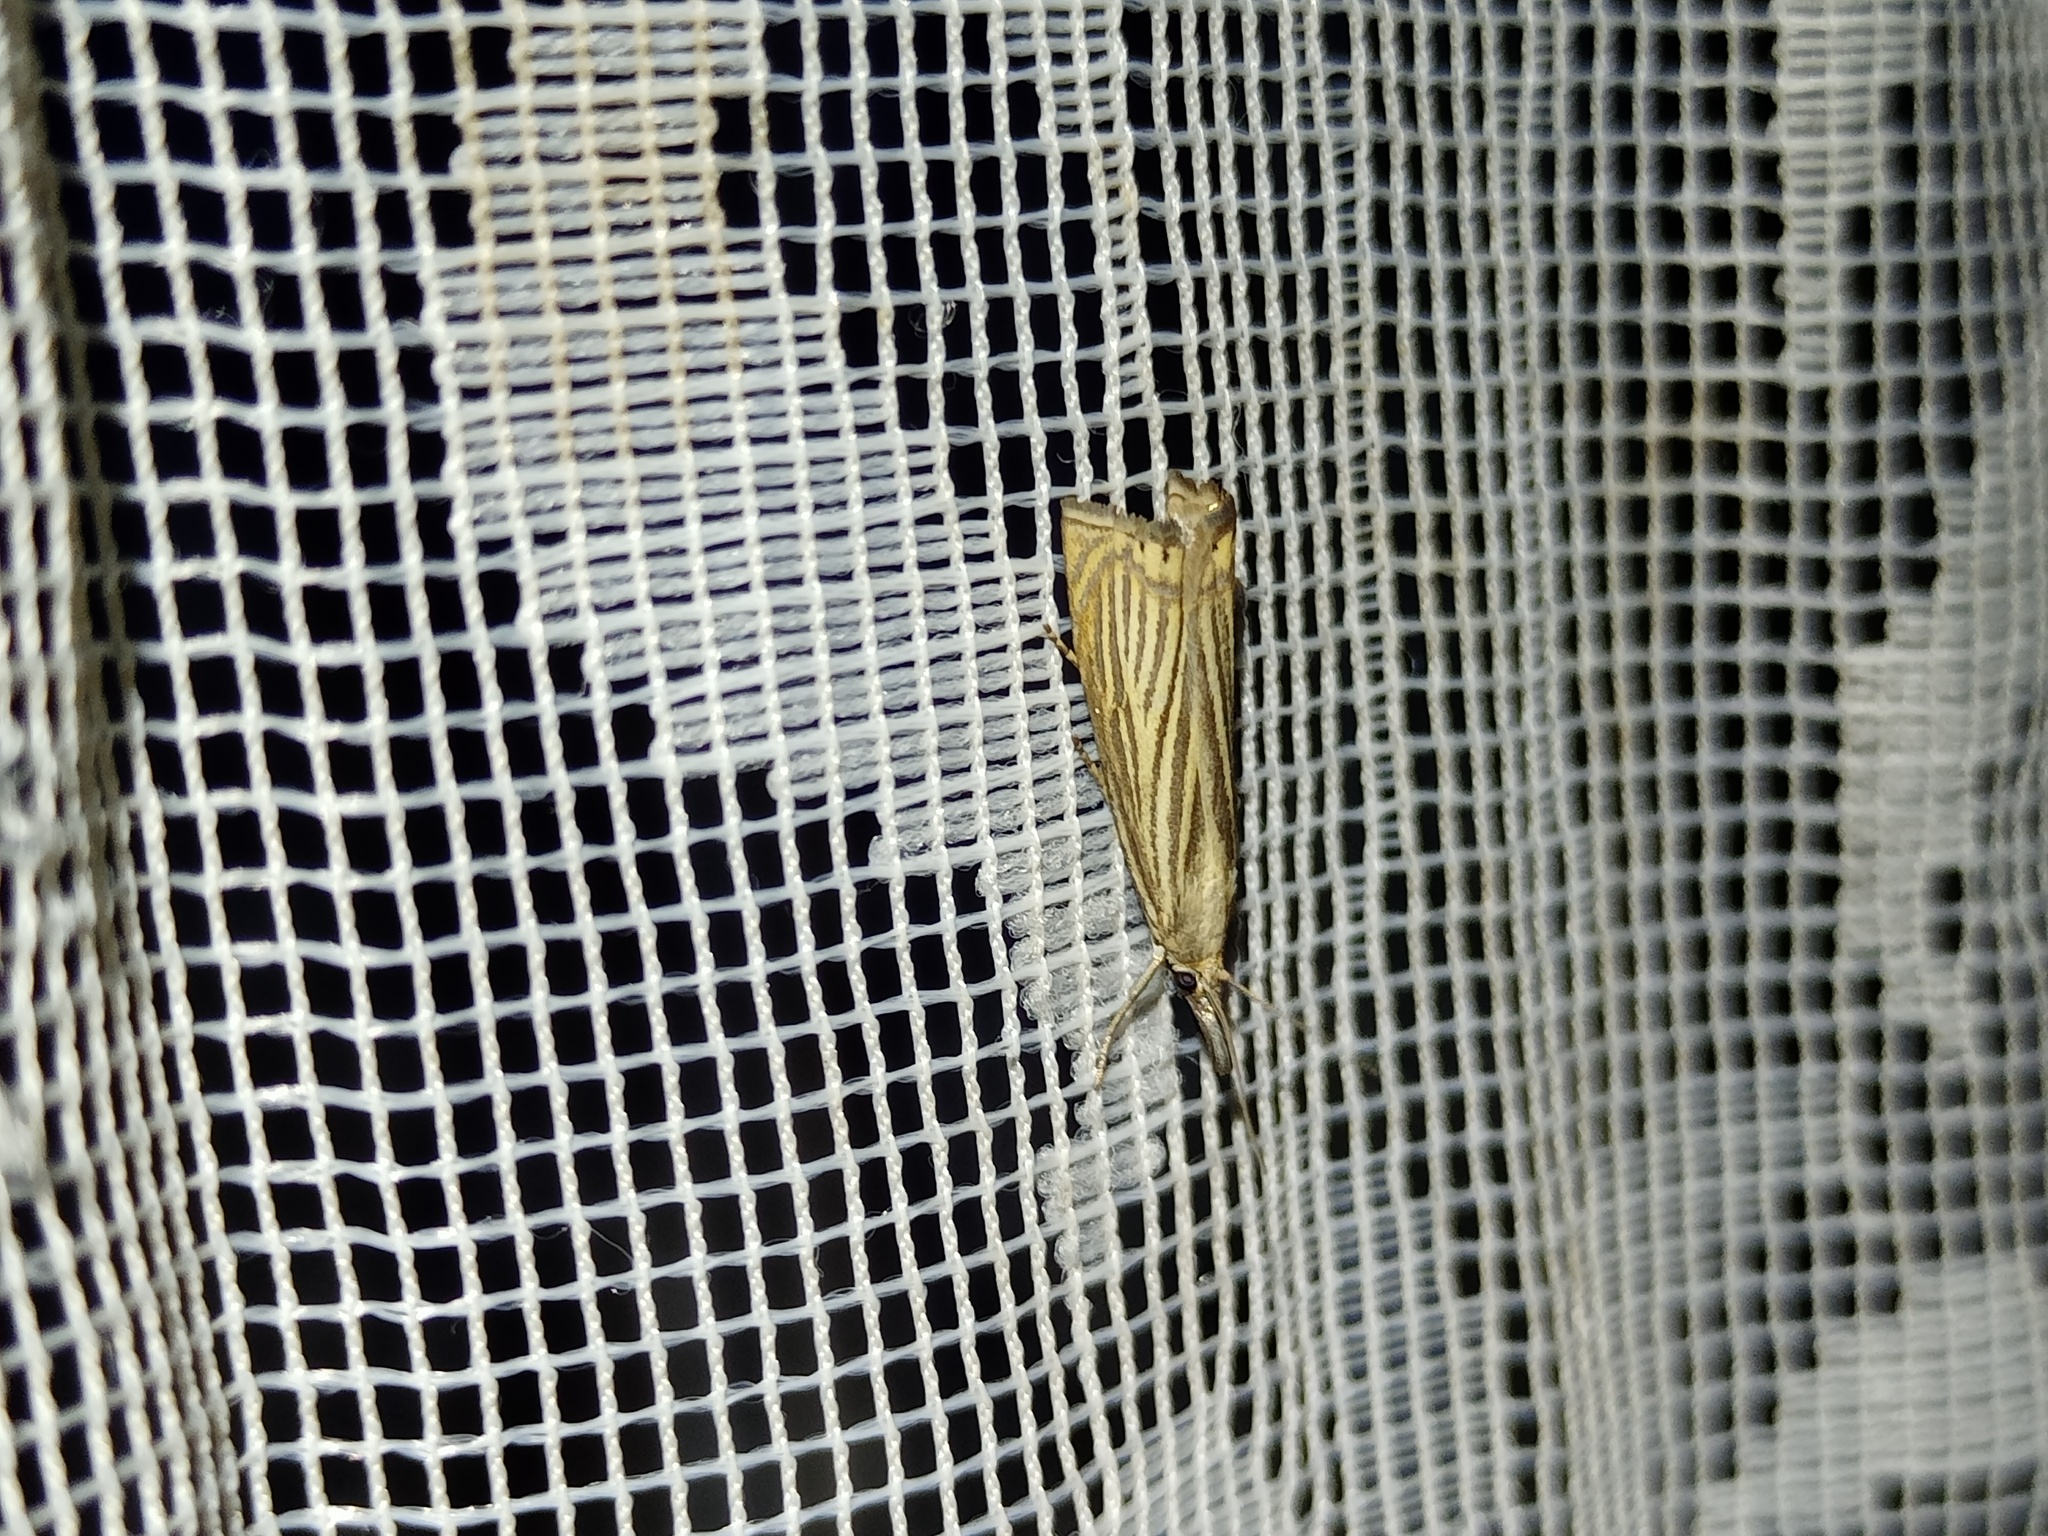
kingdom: Animalia
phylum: Arthropoda
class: Insecta
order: Lepidoptera
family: Crambidae
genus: Chrysoteuchia
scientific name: Chrysoteuchia culmella
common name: Garden grass-veneer
